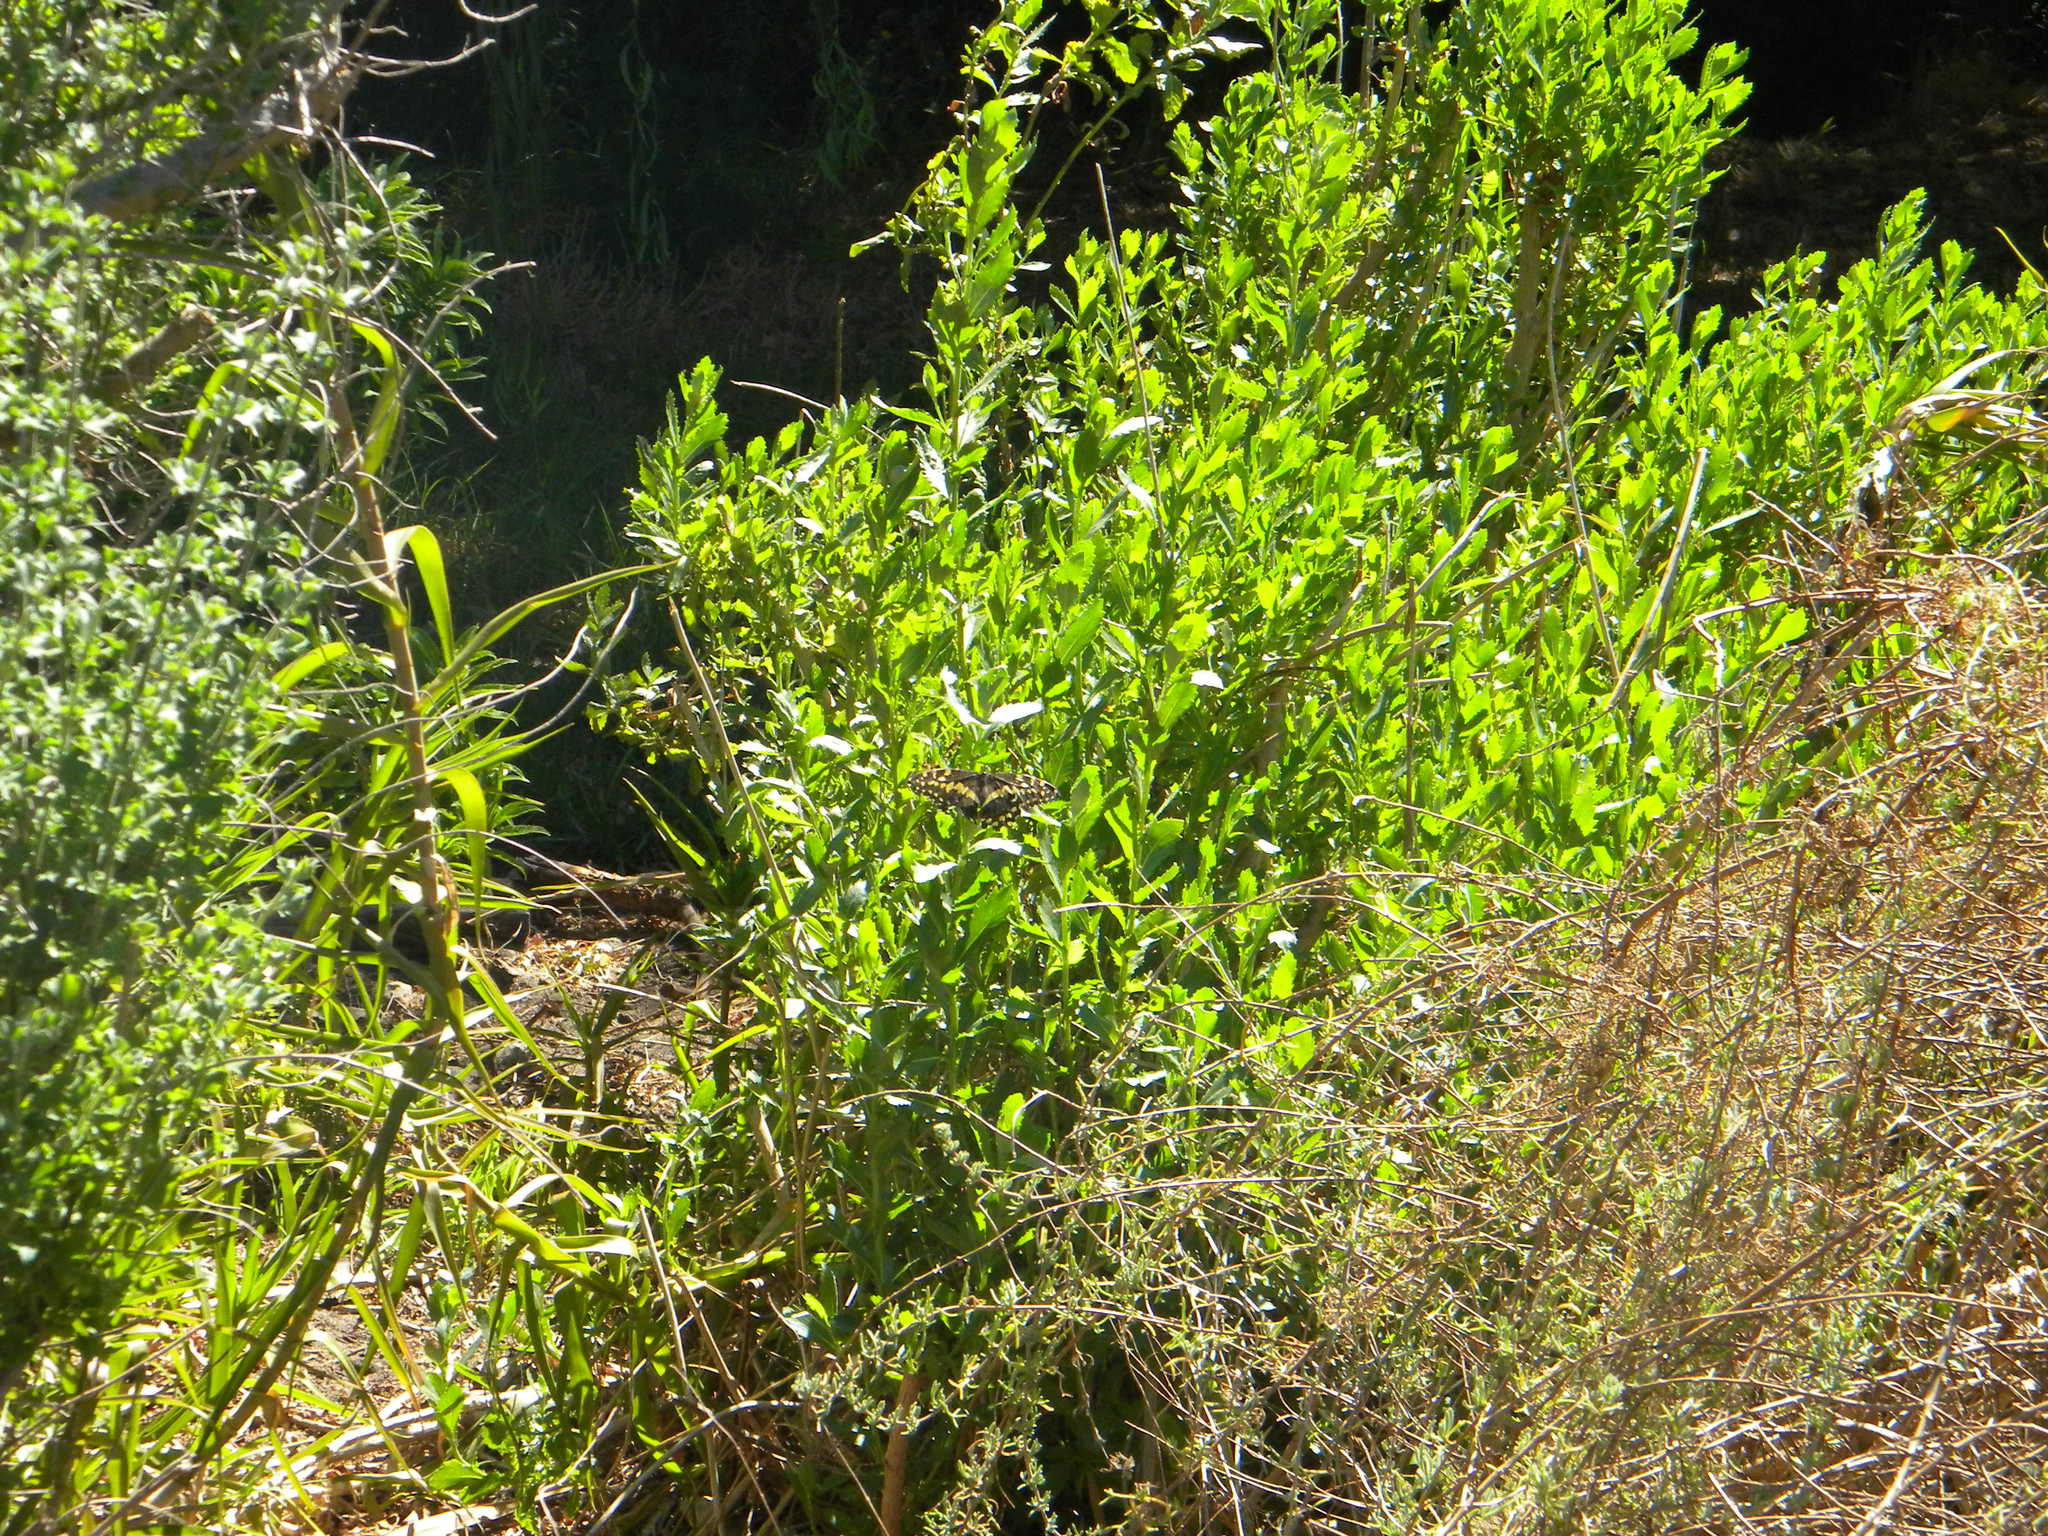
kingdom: Animalia
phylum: Arthropoda
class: Insecta
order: Lepidoptera
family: Papilionidae
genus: Papilio
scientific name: Papilio demodocus
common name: Christmas butterfly
